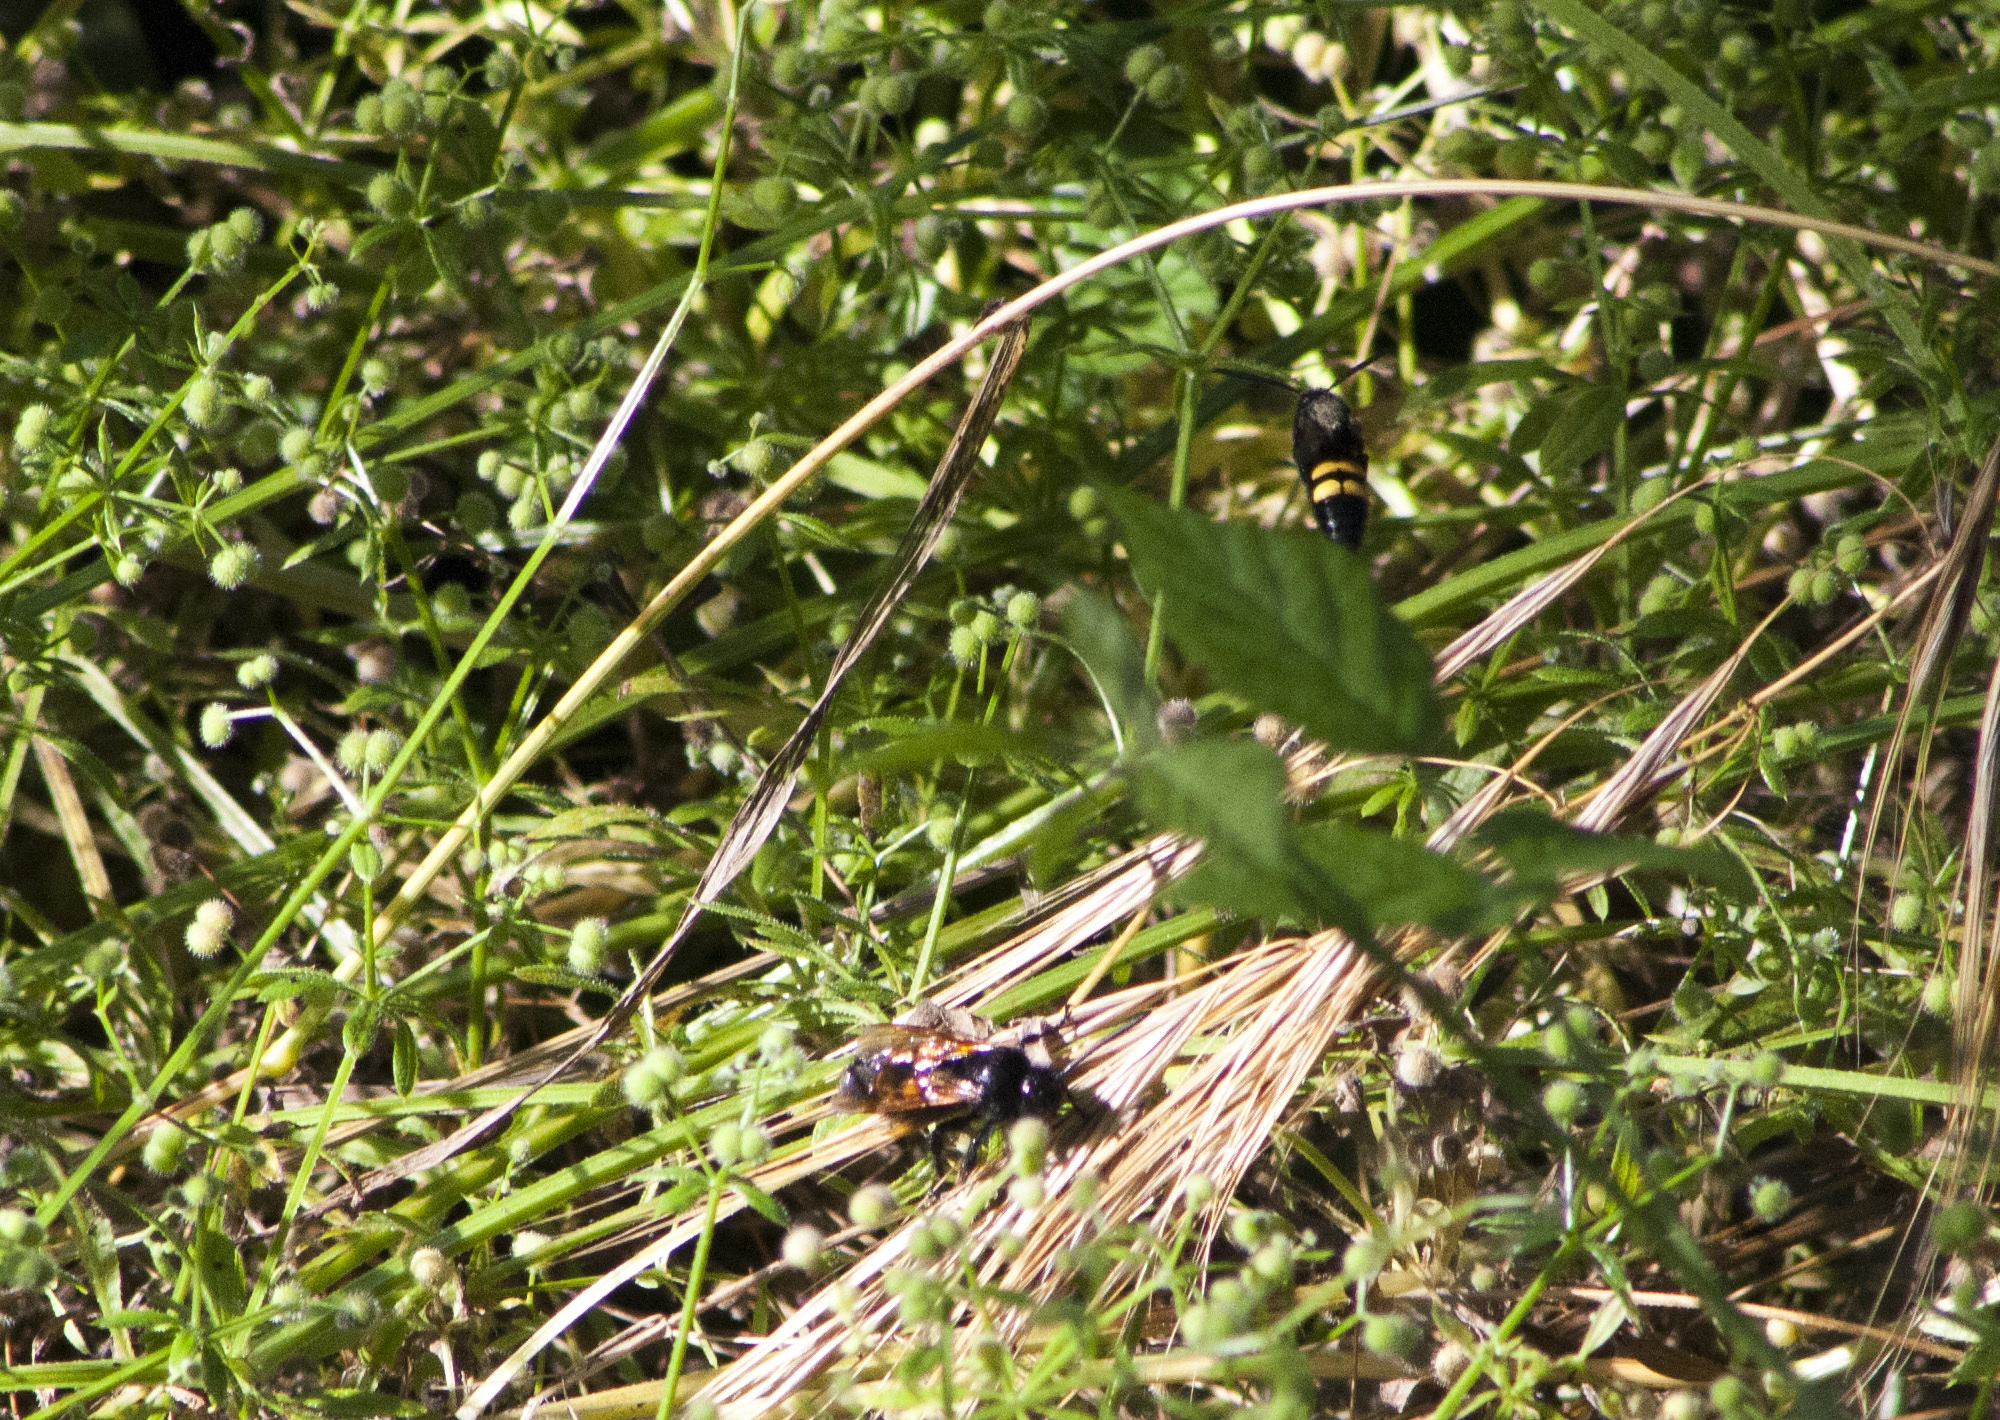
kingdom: Animalia
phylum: Arthropoda
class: Insecta
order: Hymenoptera
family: Scoliidae
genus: Megascolia
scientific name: Megascolia maculata
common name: Mammoth wasp
